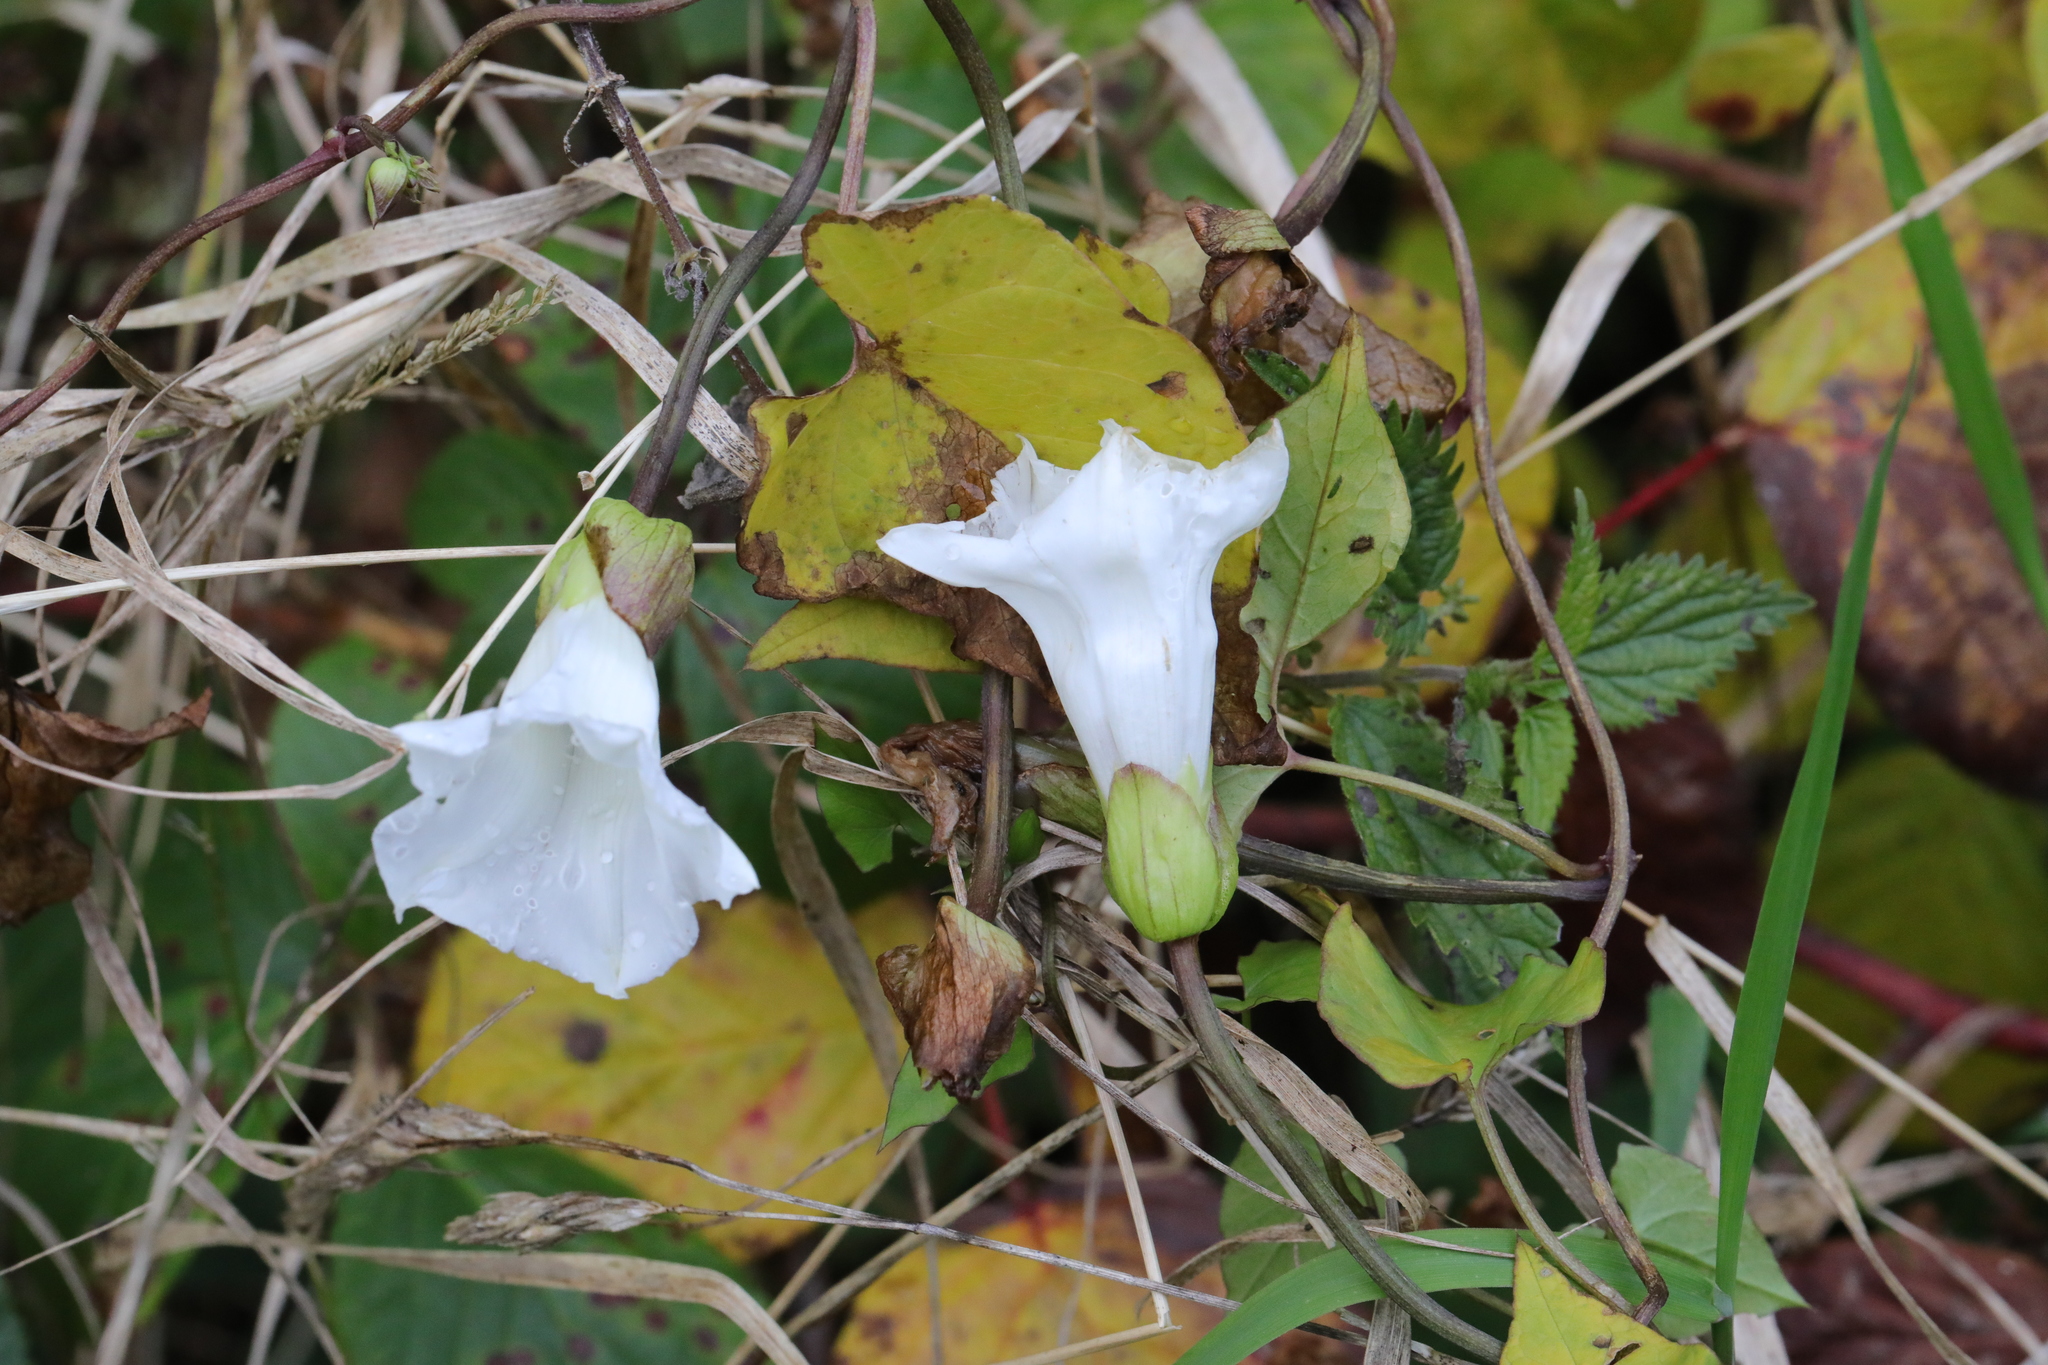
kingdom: Plantae
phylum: Tracheophyta
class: Magnoliopsida
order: Solanales
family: Convolvulaceae
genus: Calystegia
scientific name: Calystegia silvatica
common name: Large bindweed
